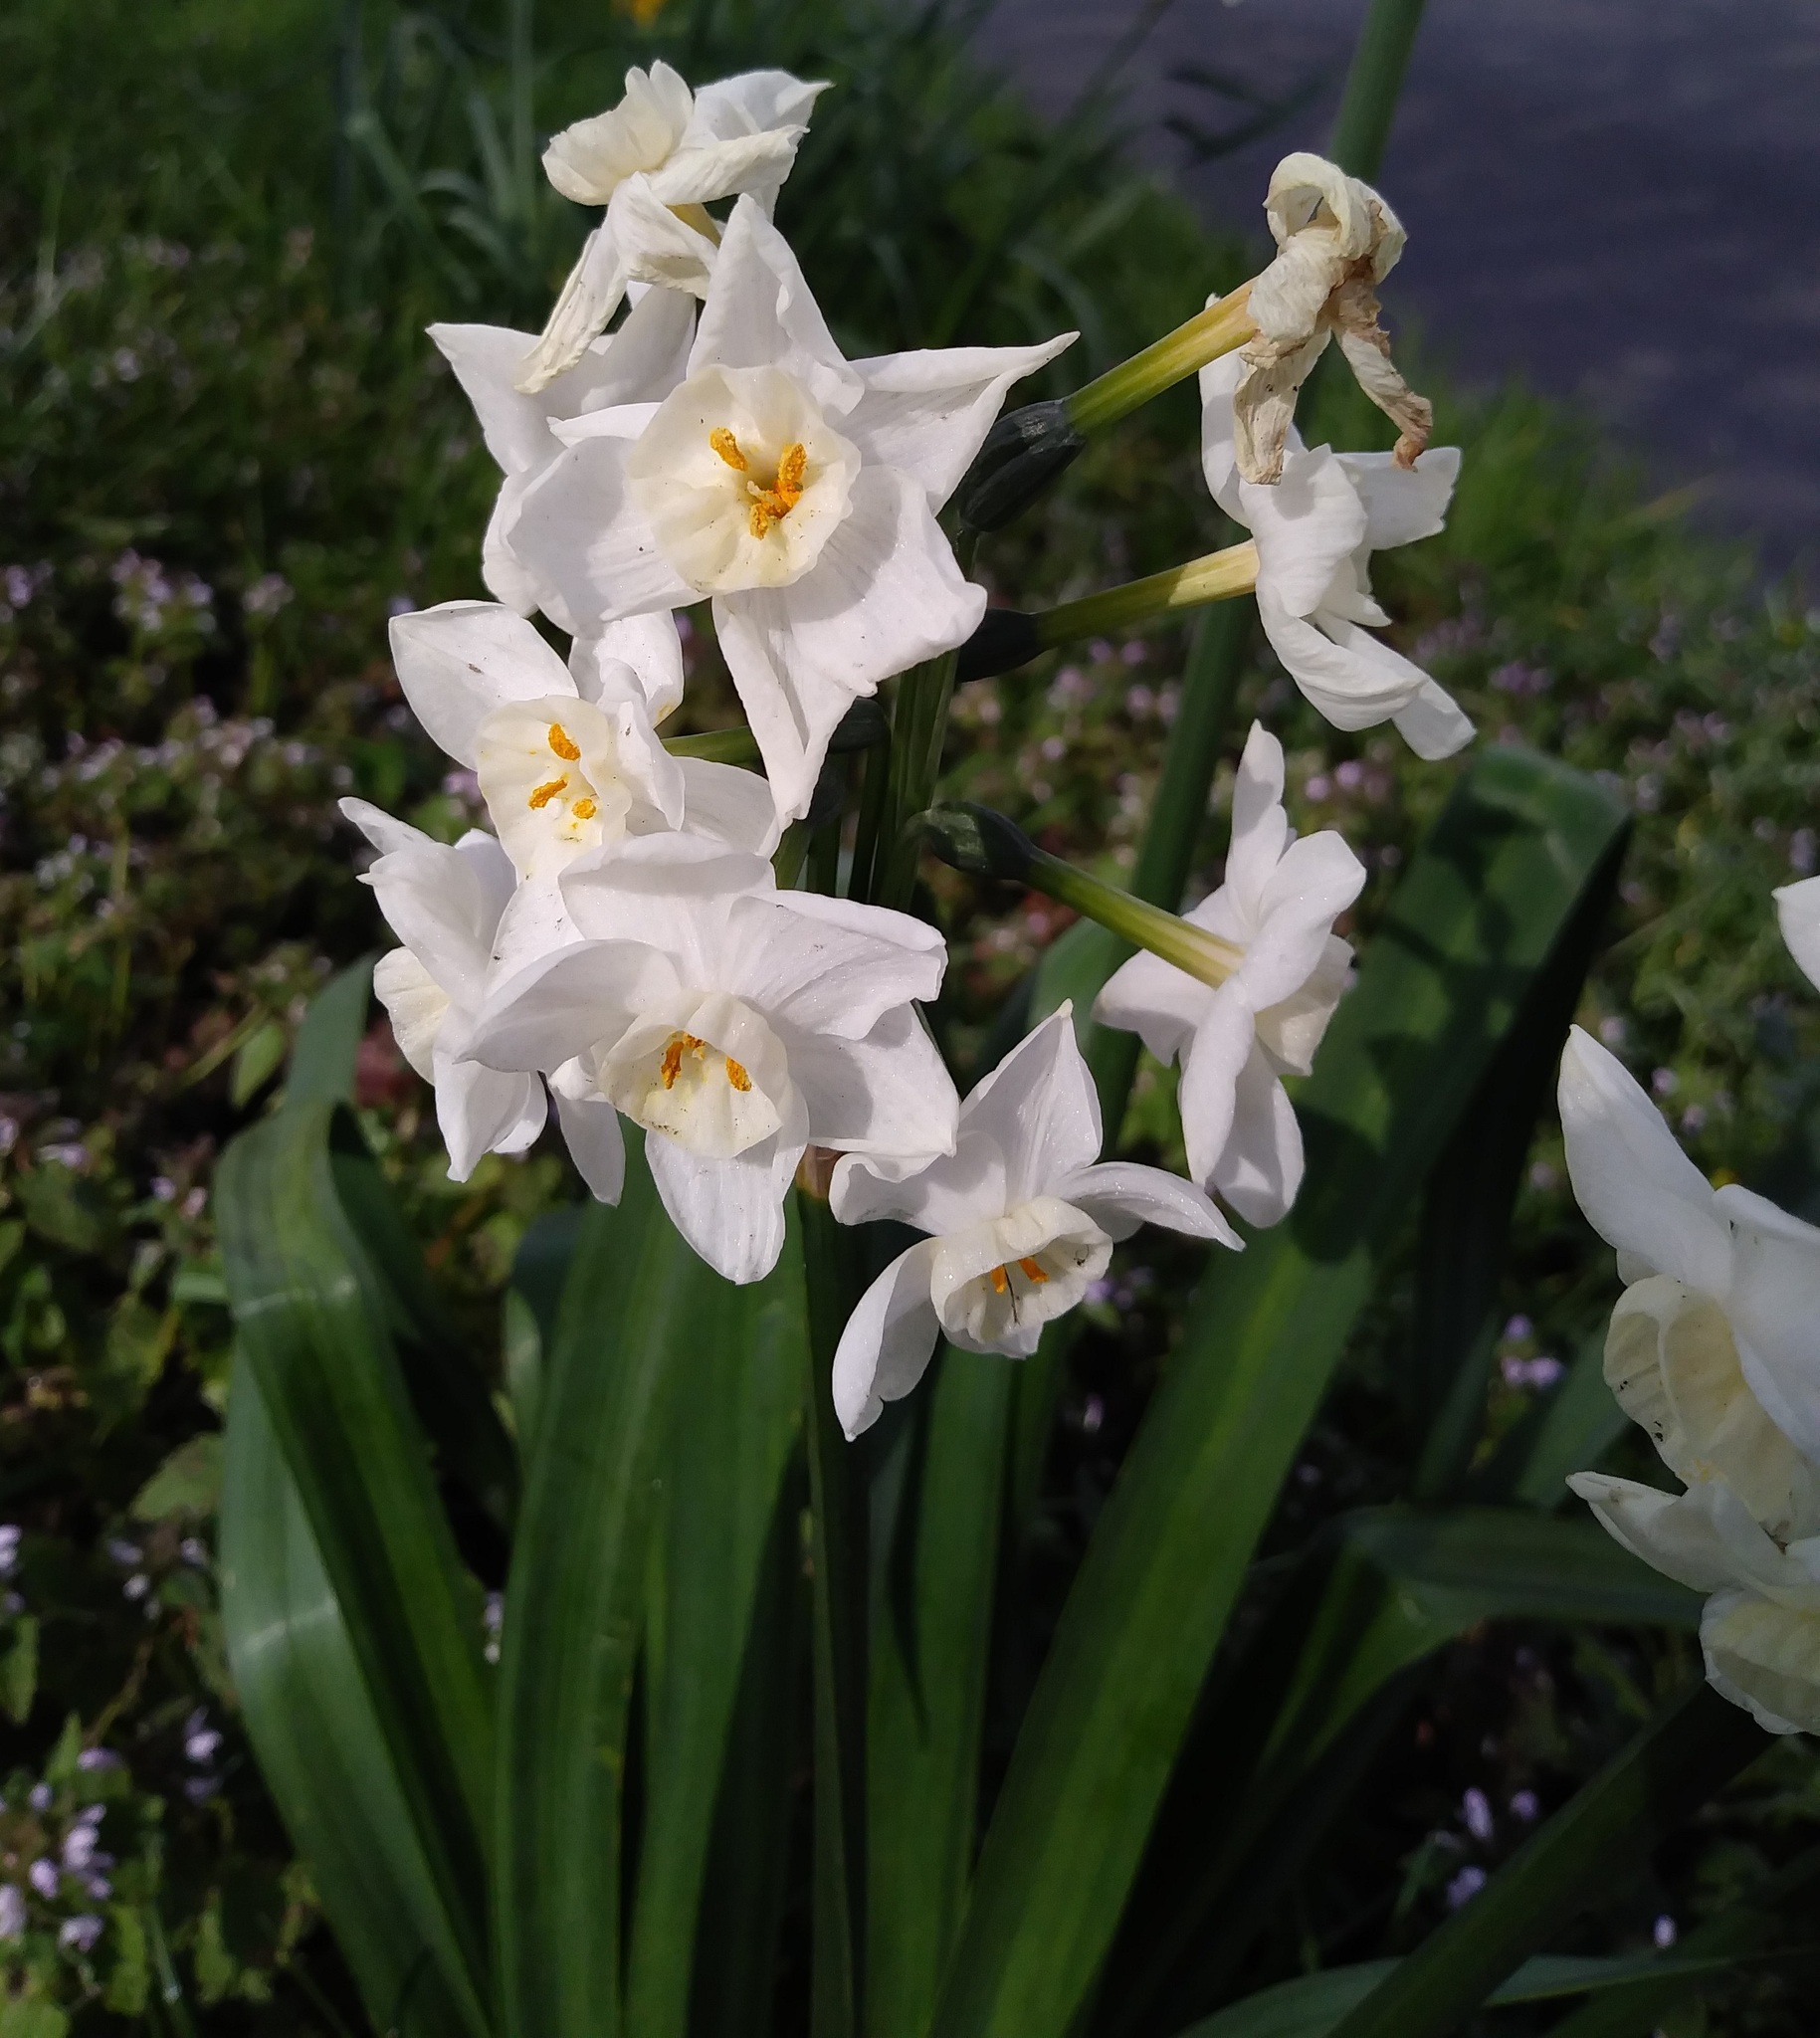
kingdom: Plantae
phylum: Tracheophyta
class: Liliopsida
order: Asparagales
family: Amaryllidaceae
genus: Narcissus
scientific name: Narcissus papyraceus
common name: Paper-white daffodil
